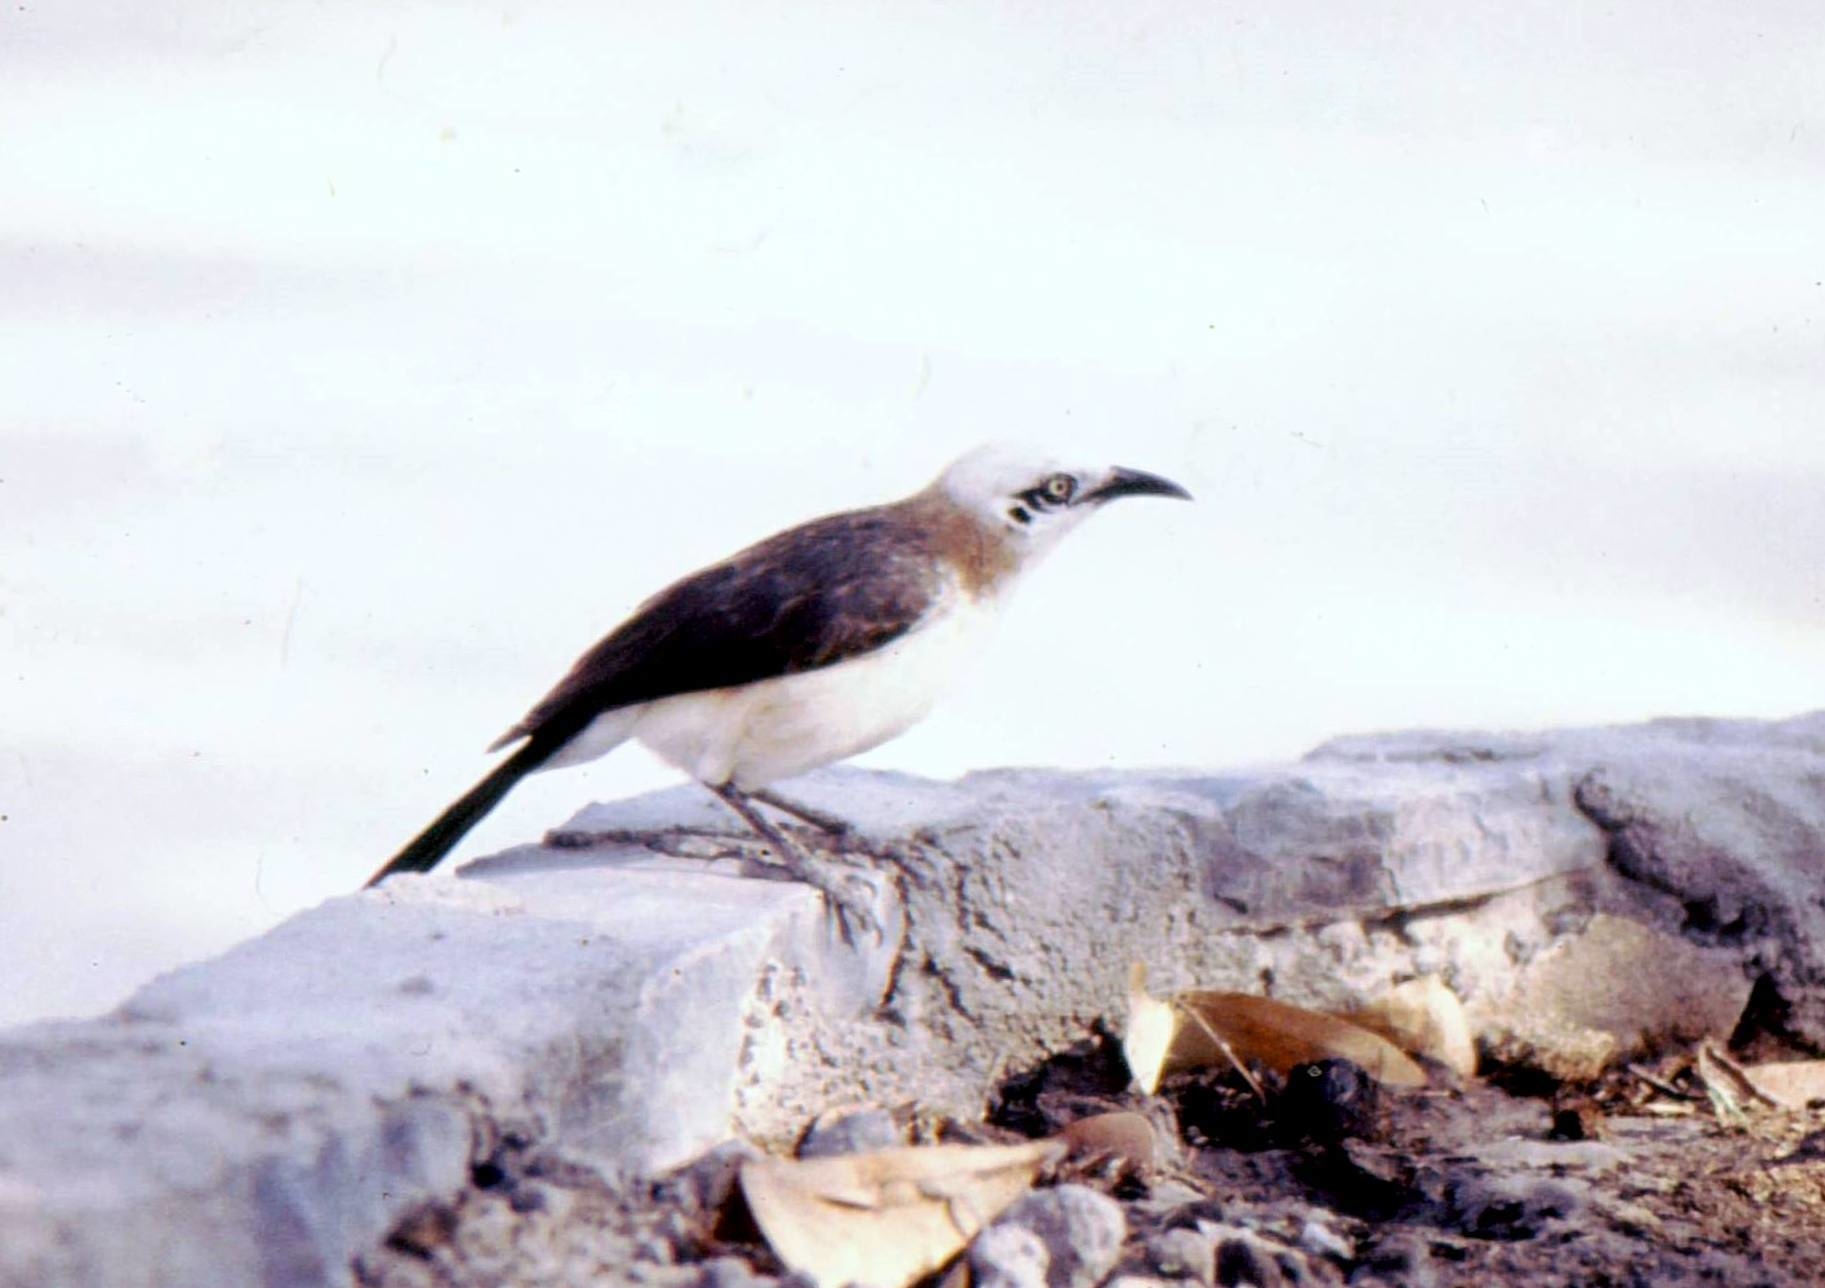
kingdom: Animalia
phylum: Chordata
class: Aves
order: Passeriformes
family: Leiothrichidae
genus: Turdoides
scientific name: Turdoides gymnogenys
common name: Bare-cheeked babbler
